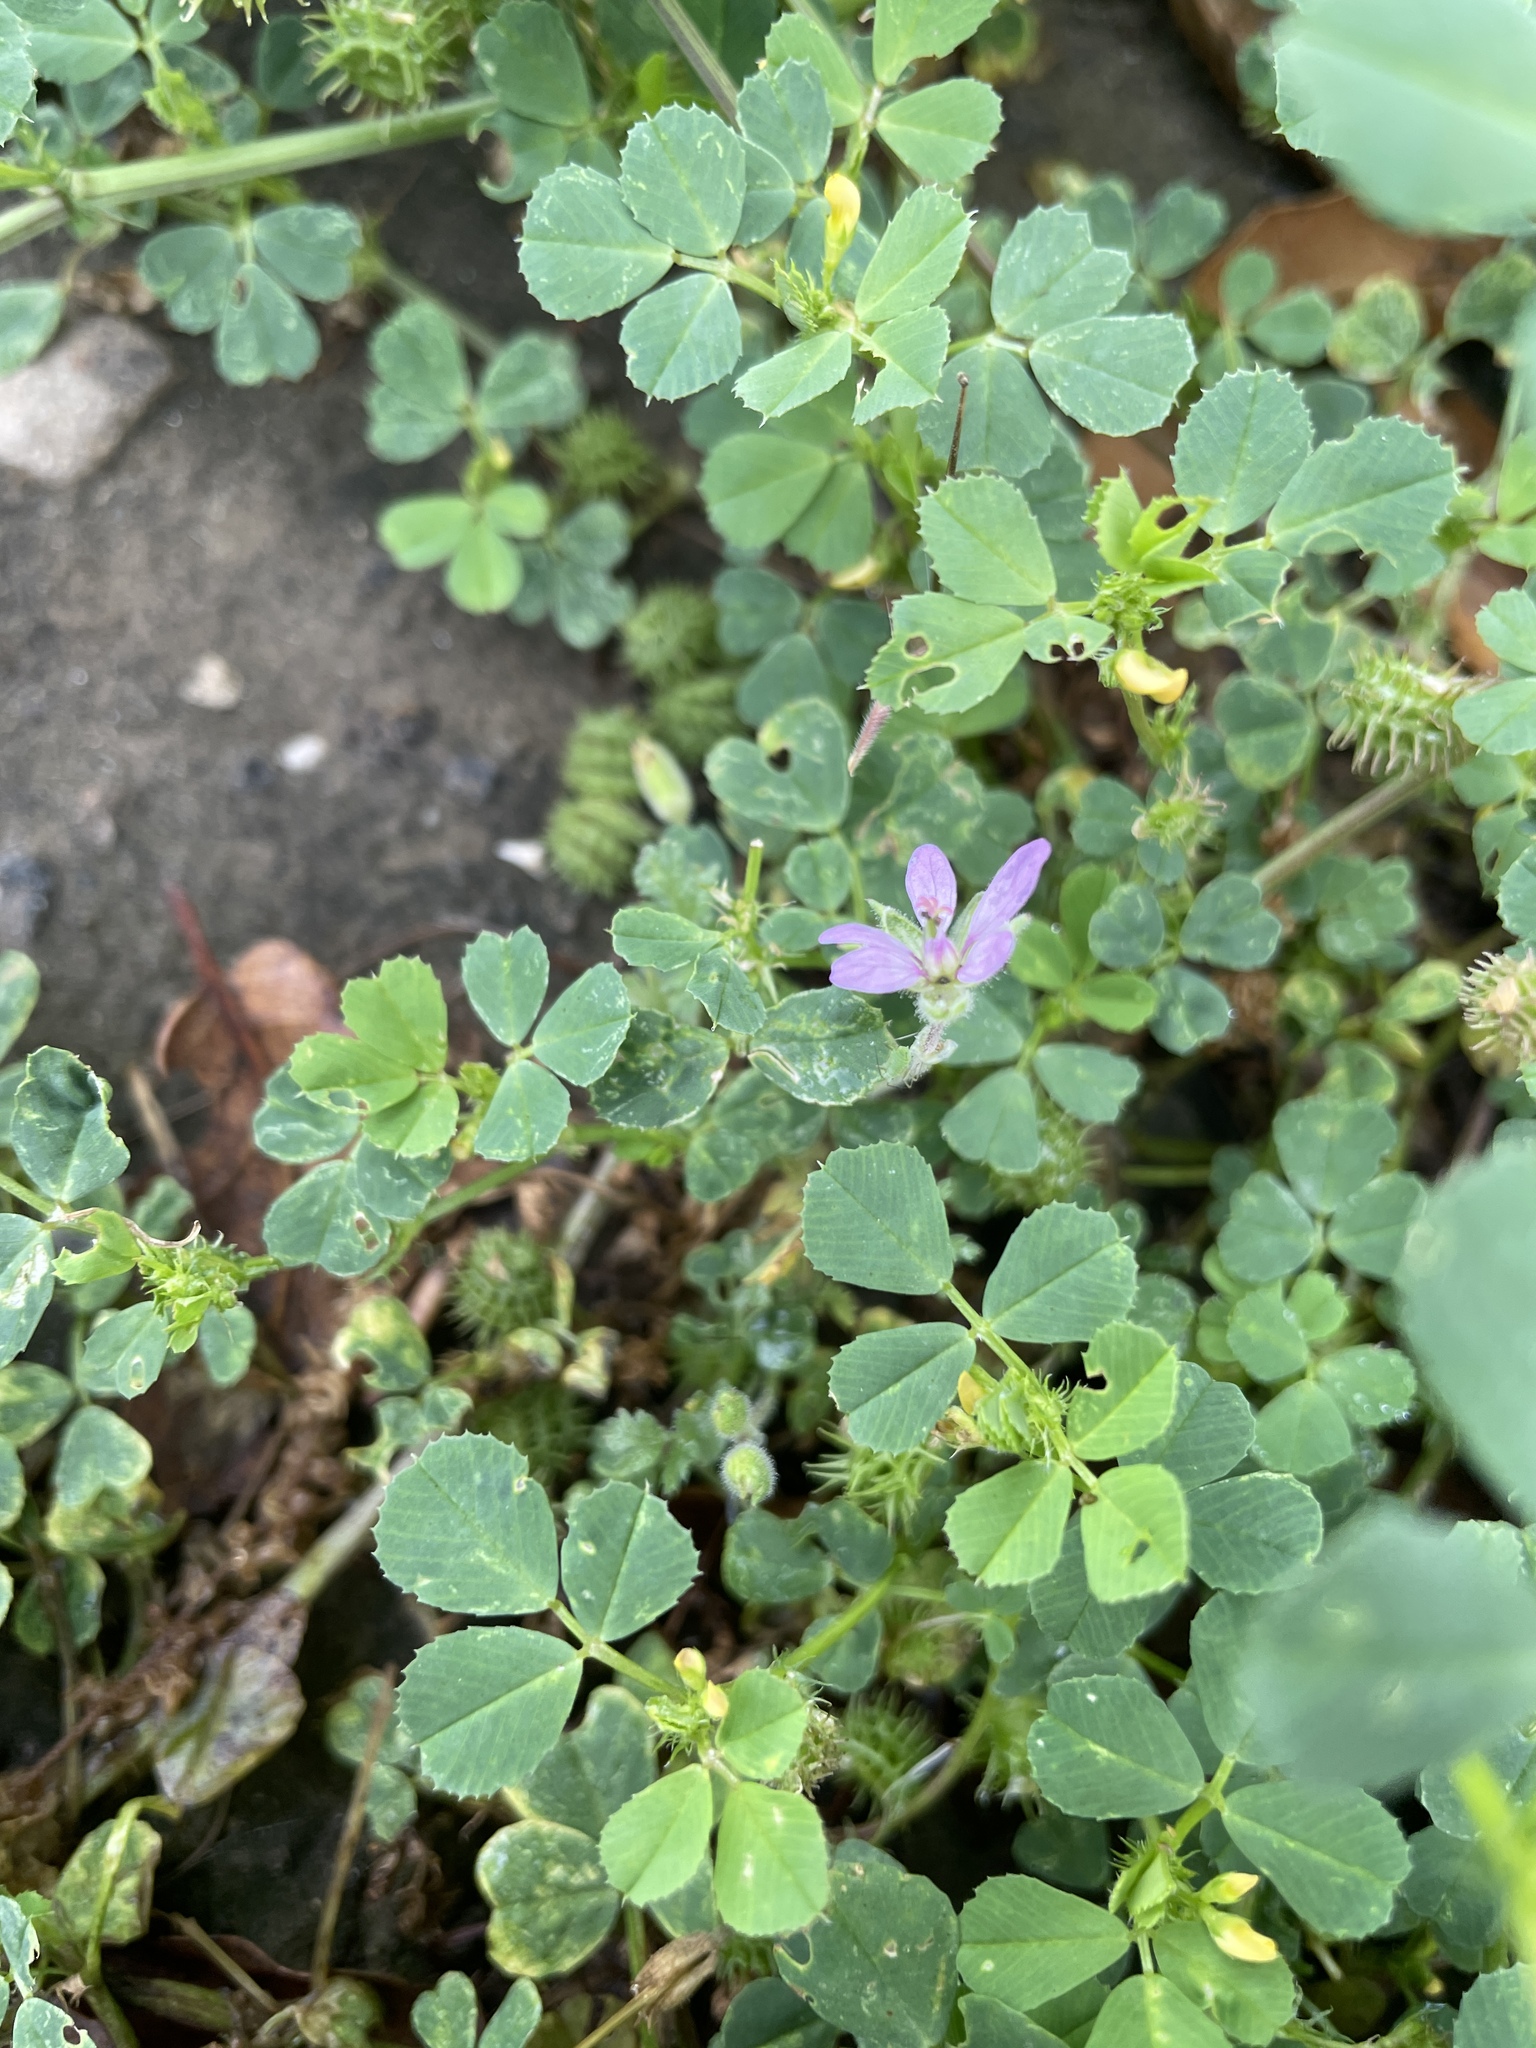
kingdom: Plantae
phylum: Tracheophyta
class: Magnoliopsida
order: Geraniales
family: Geraniaceae
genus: Erodium
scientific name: Erodium moschatum
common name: Musk stork's-bill
